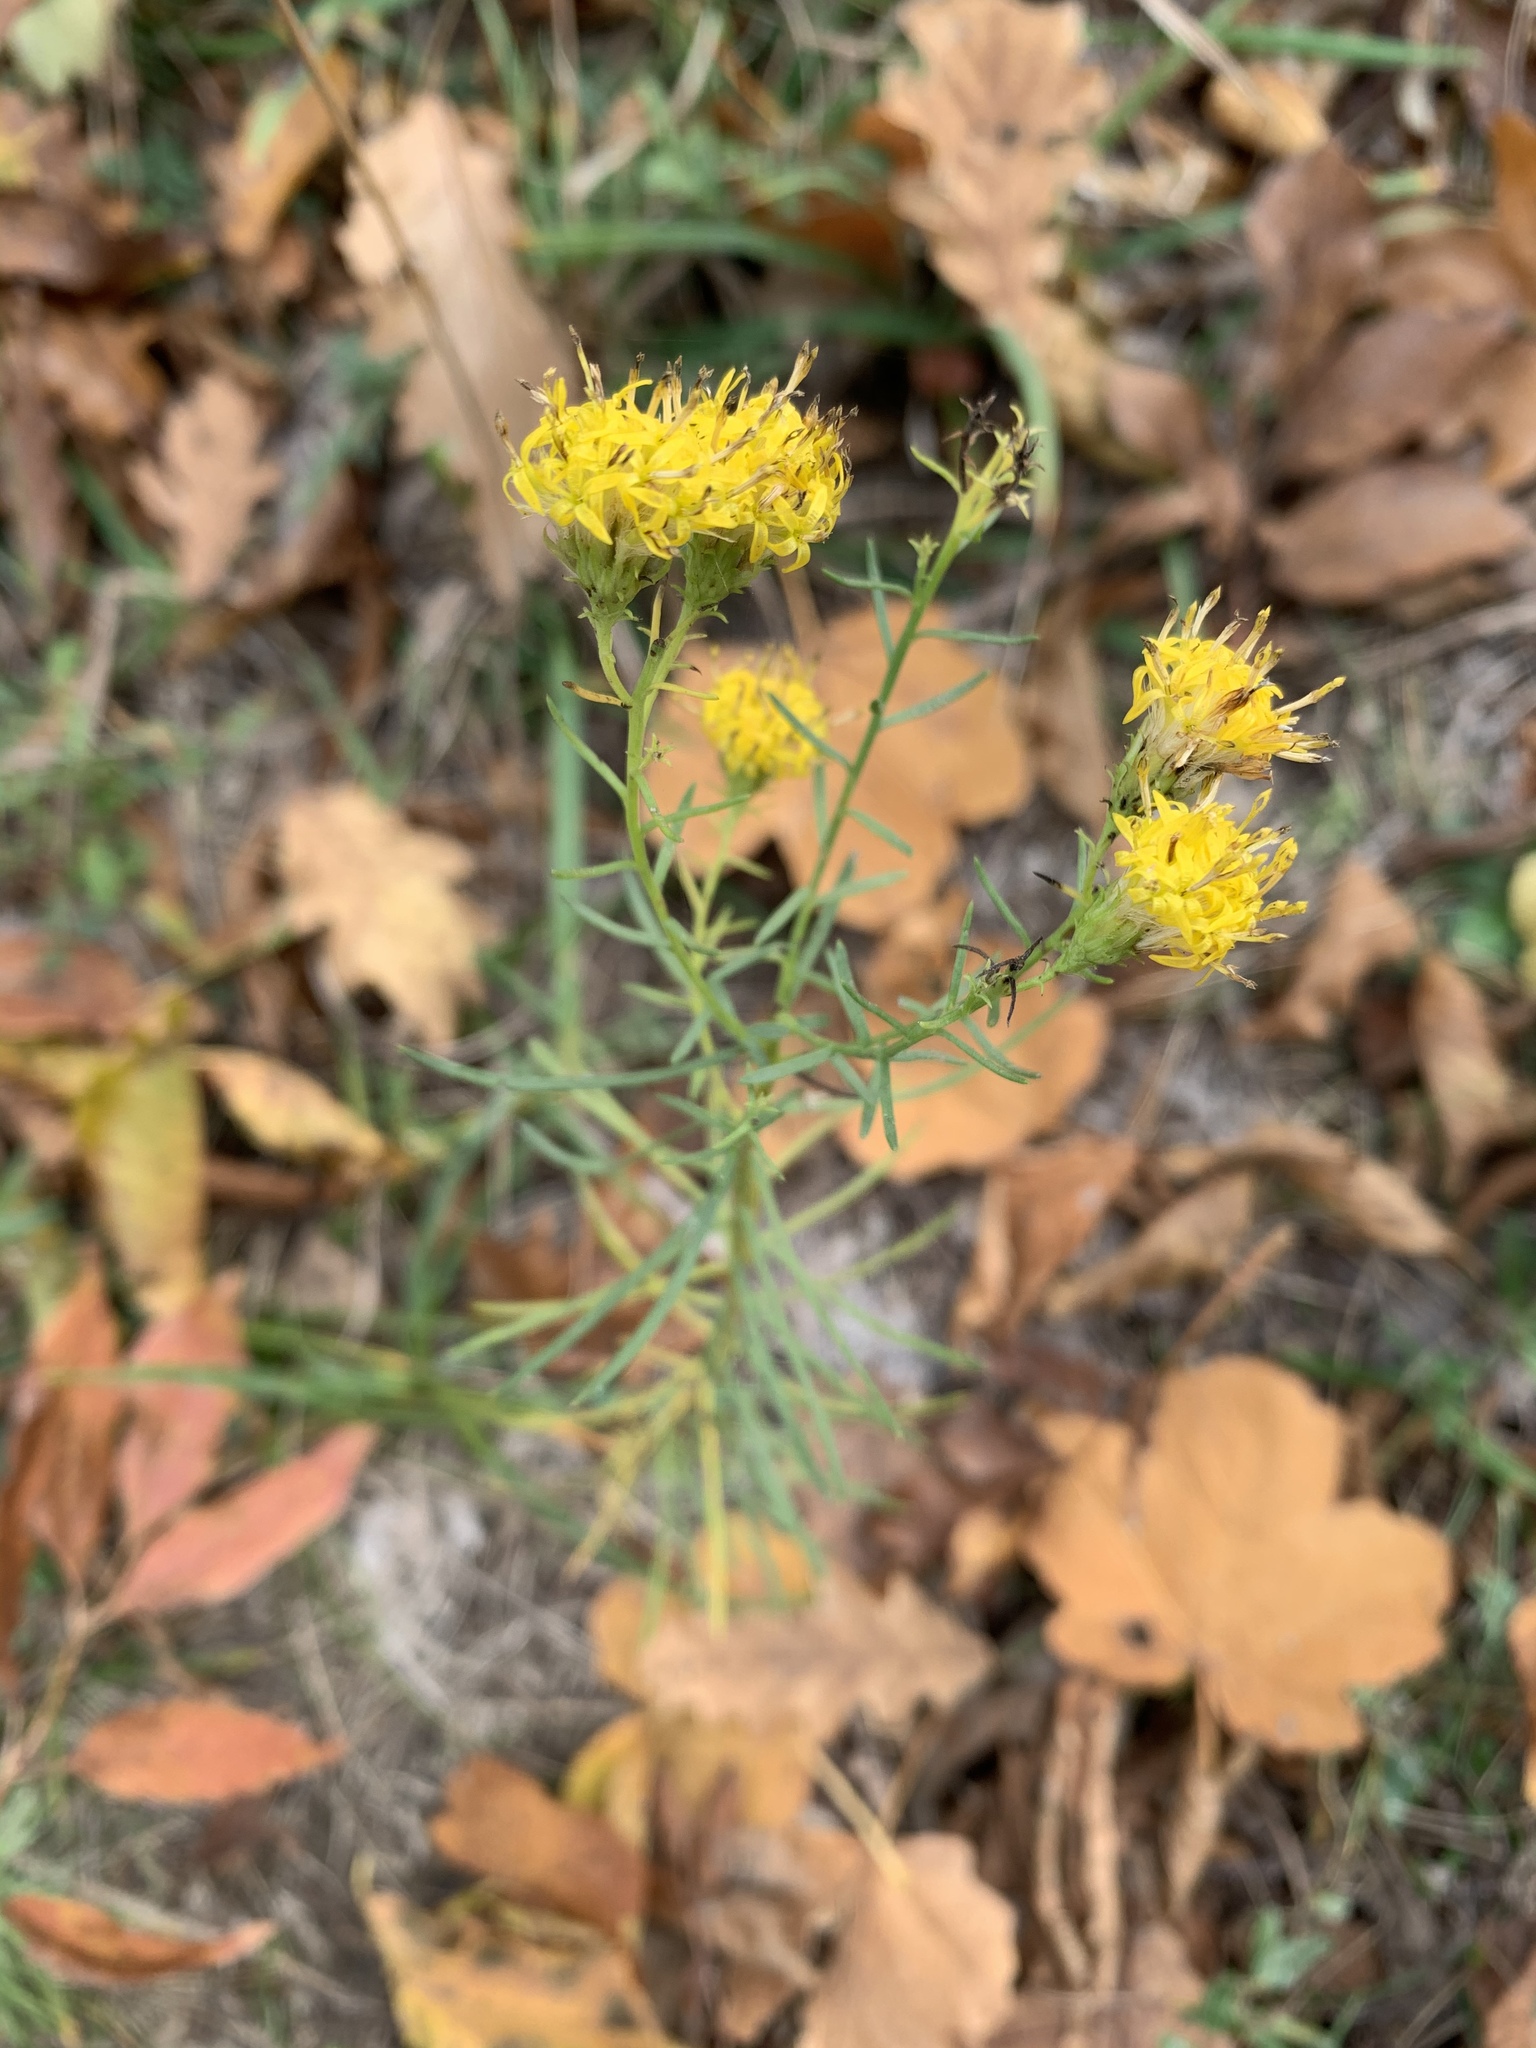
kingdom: Plantae
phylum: Tracheophyta
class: Magnoliopsida
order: Asterales
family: Asteraceae
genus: Galatella
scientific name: Galatella linosyris
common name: Goldilocks aster
